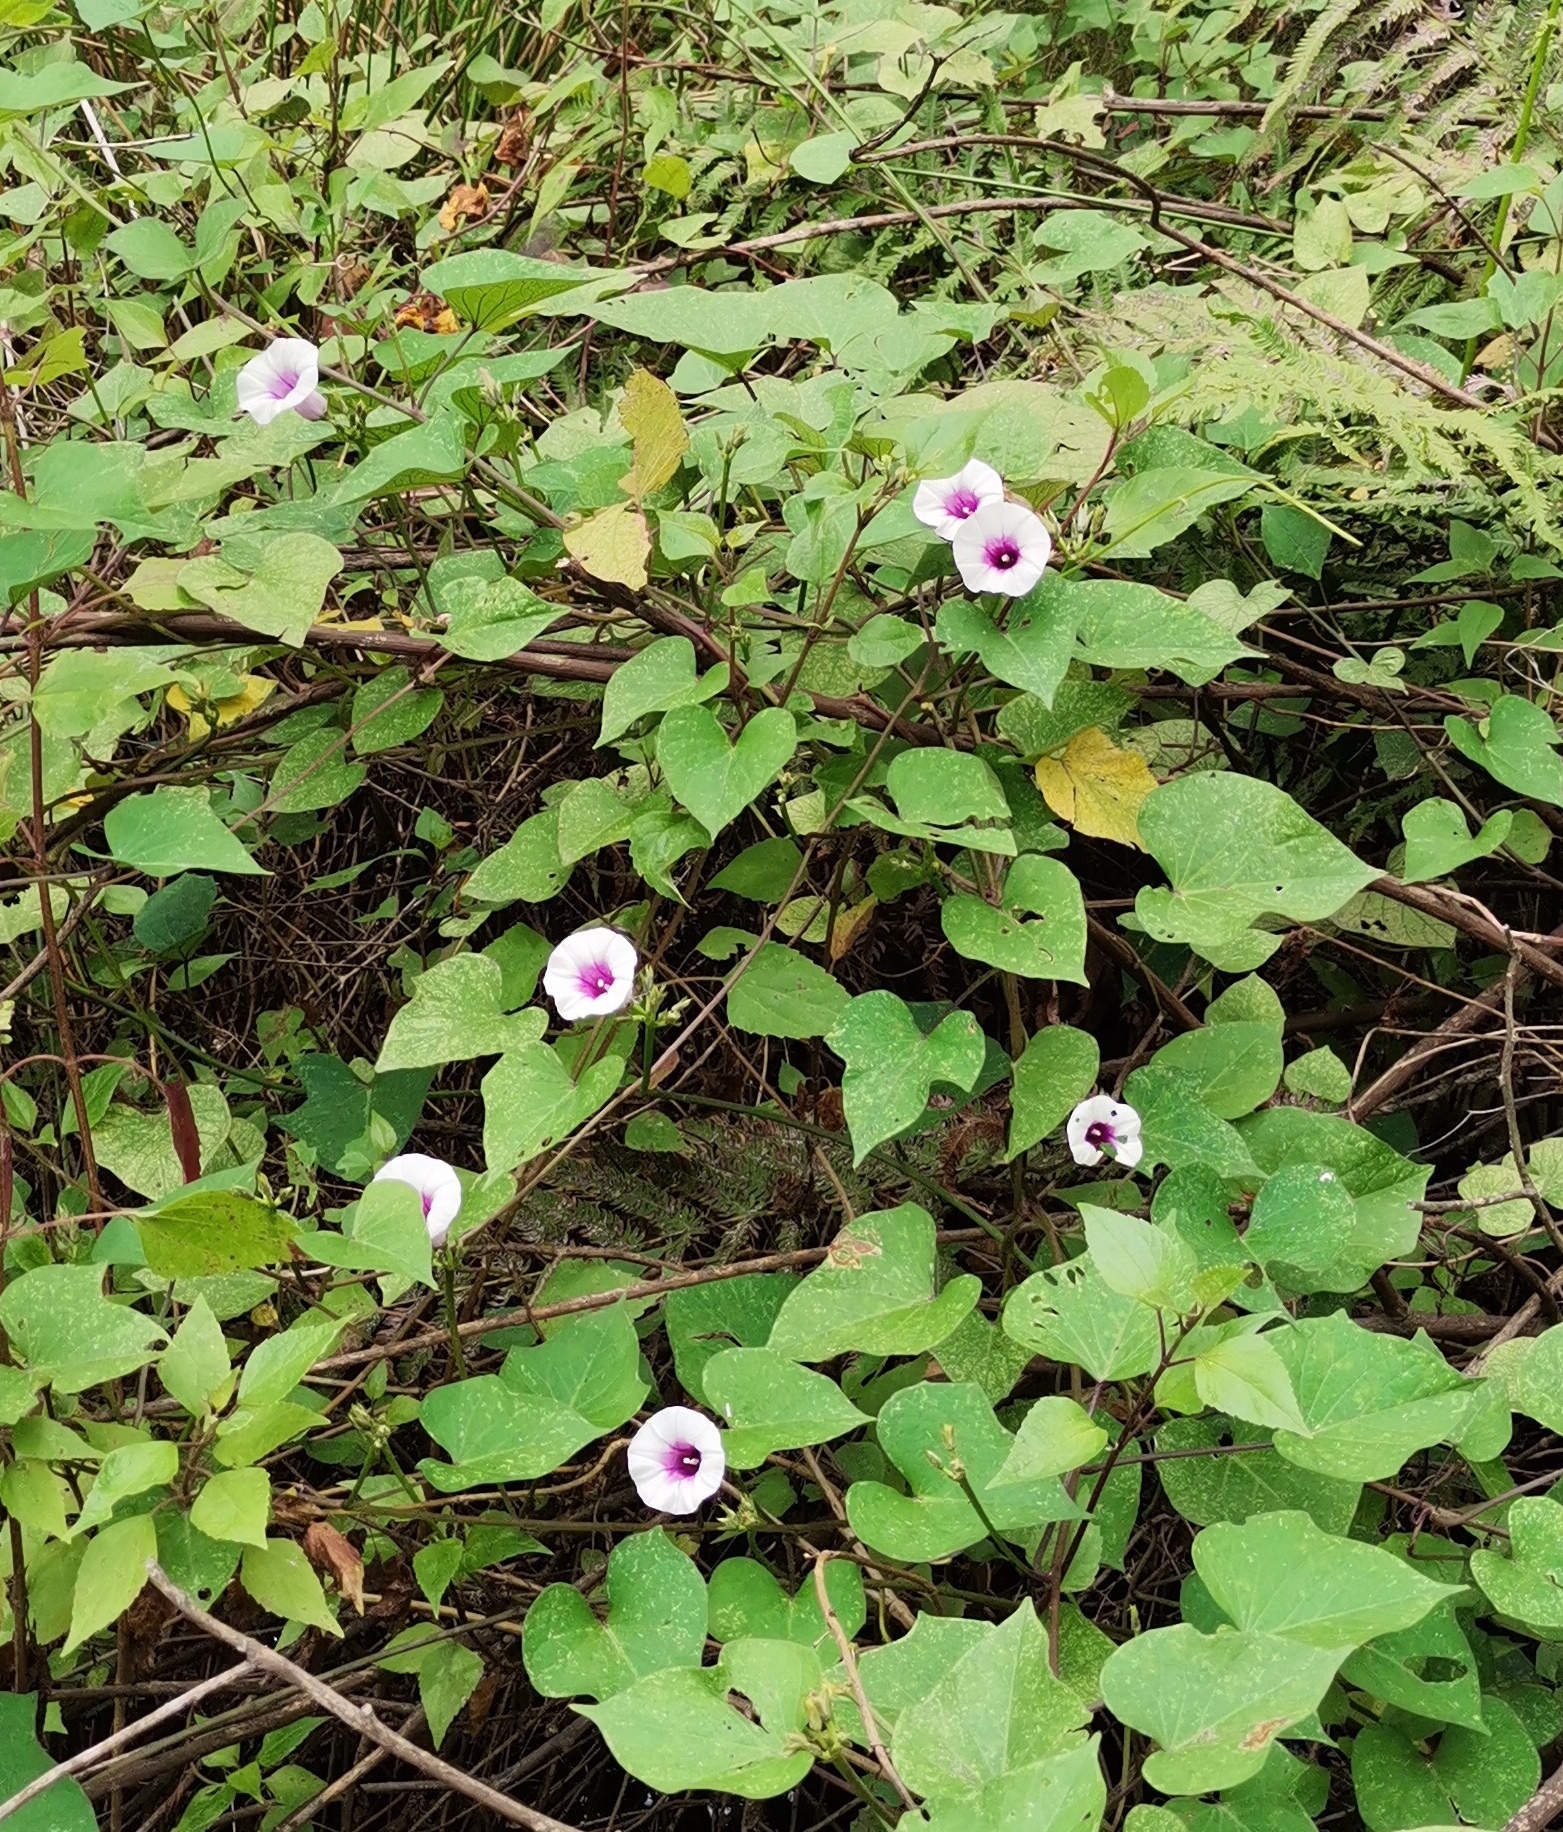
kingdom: Plantae
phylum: Tracheophyta
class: Magnoliopsida
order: Solanales
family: Convolvulaceae
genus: Ipomoea
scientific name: Ipomoea batatas
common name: Sweet-potato
